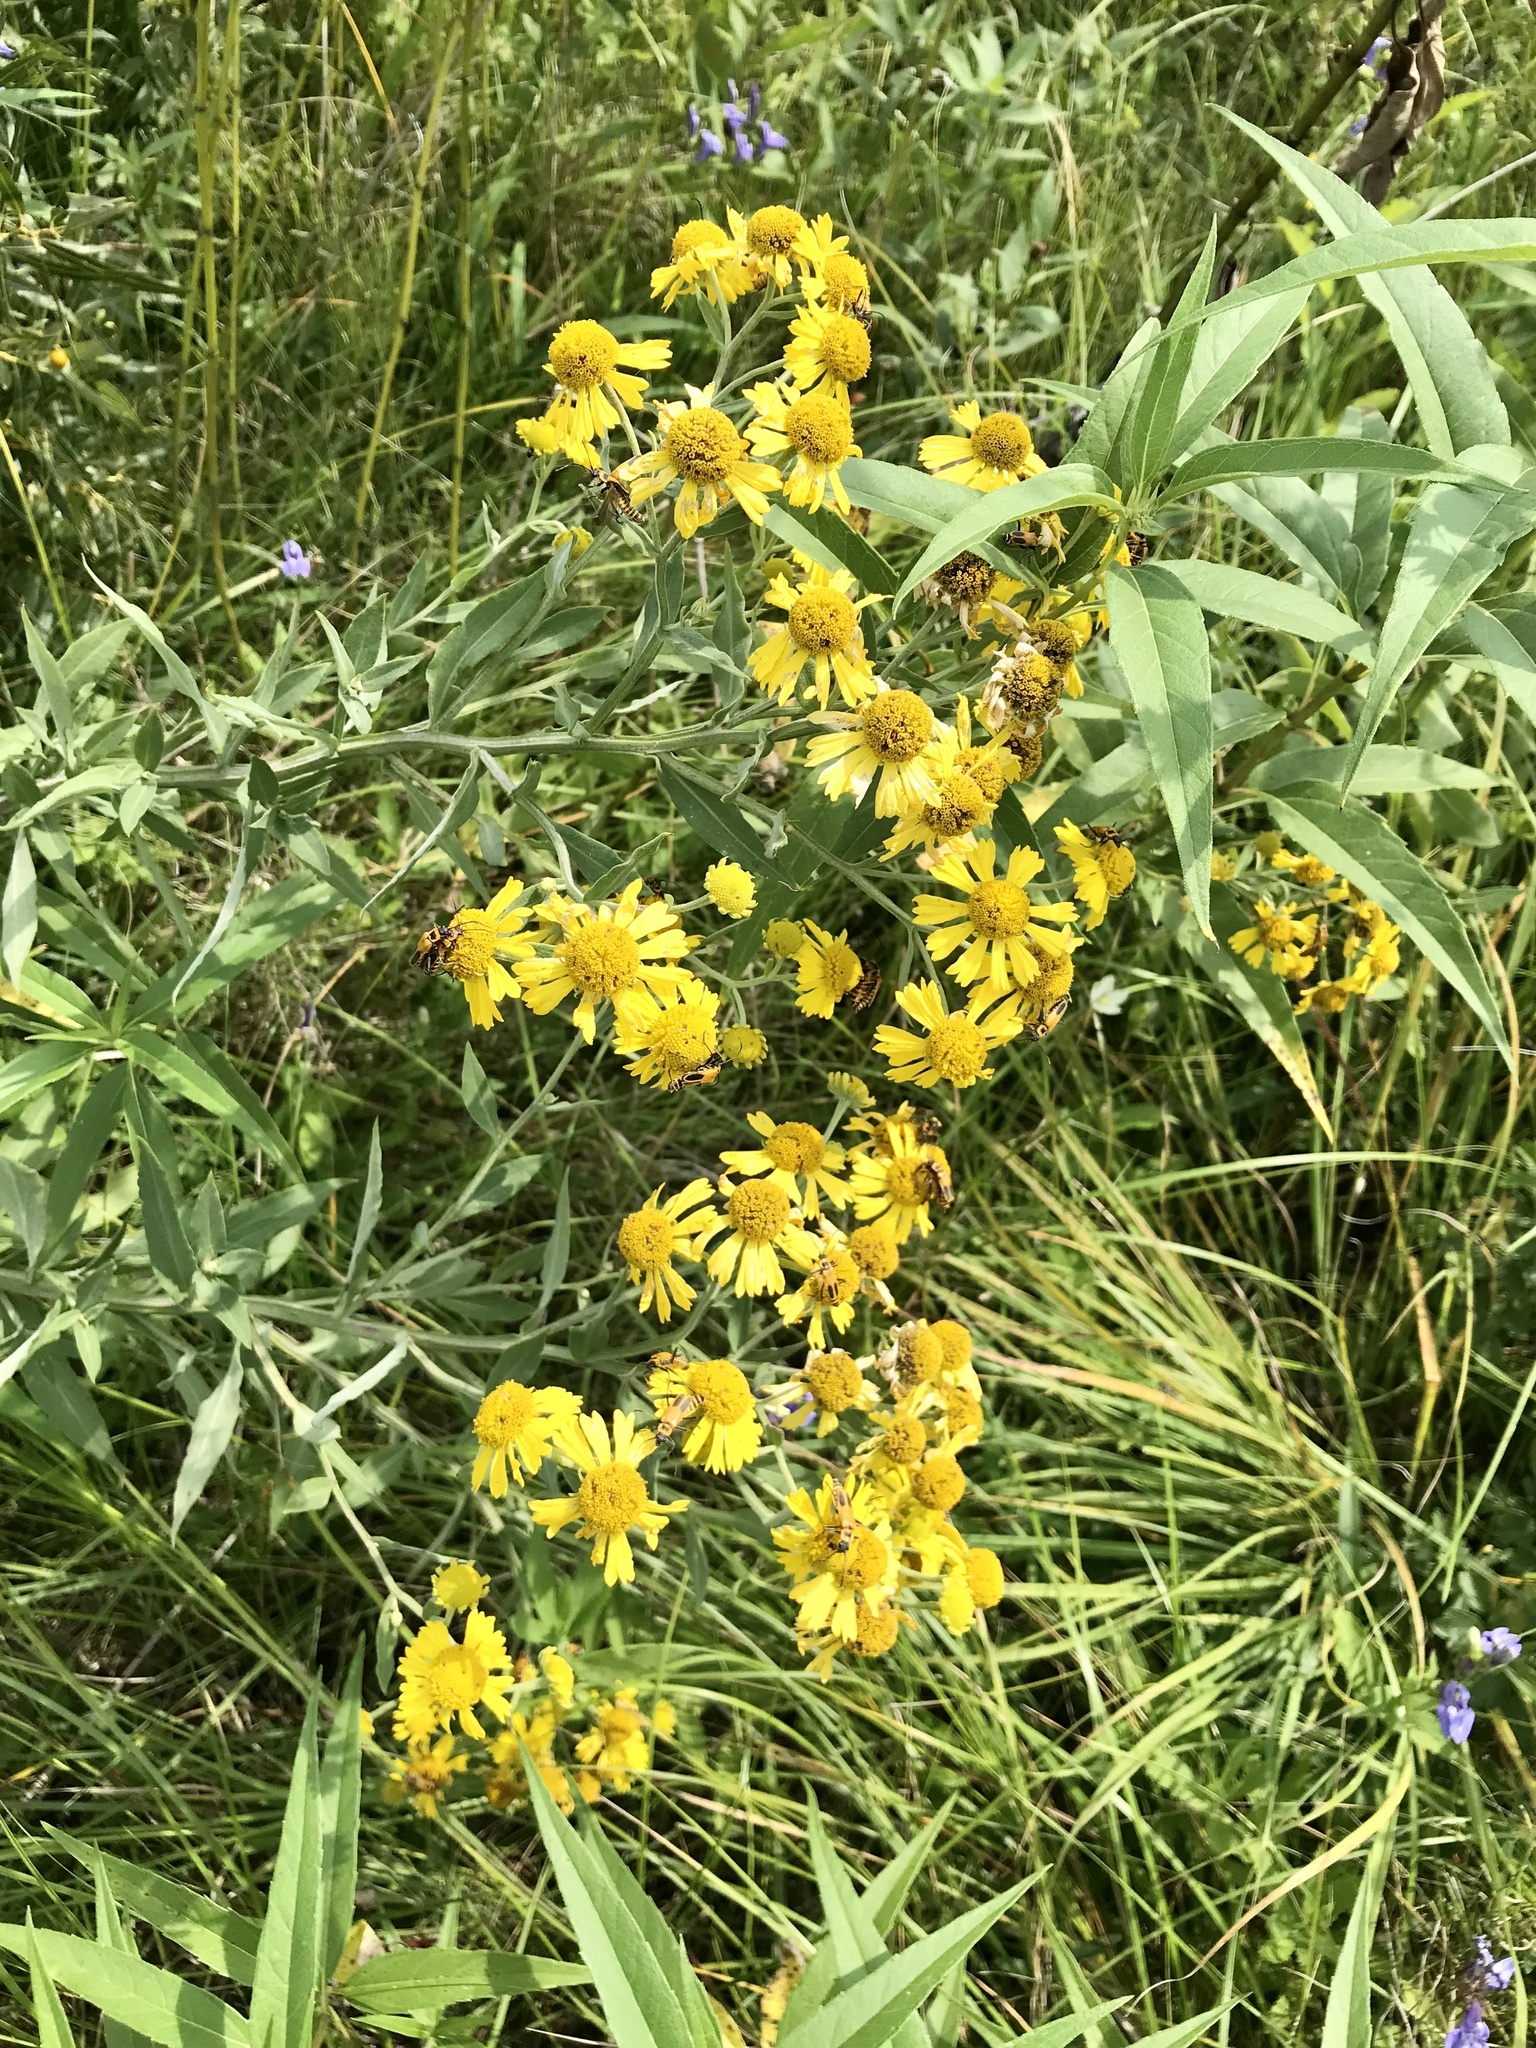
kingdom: Plantae
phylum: Tracheophyta
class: Magnoliopsida
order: Asterales
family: Asteraceae
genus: Helenium
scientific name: Helenium autumnale
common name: Sneezeweed
